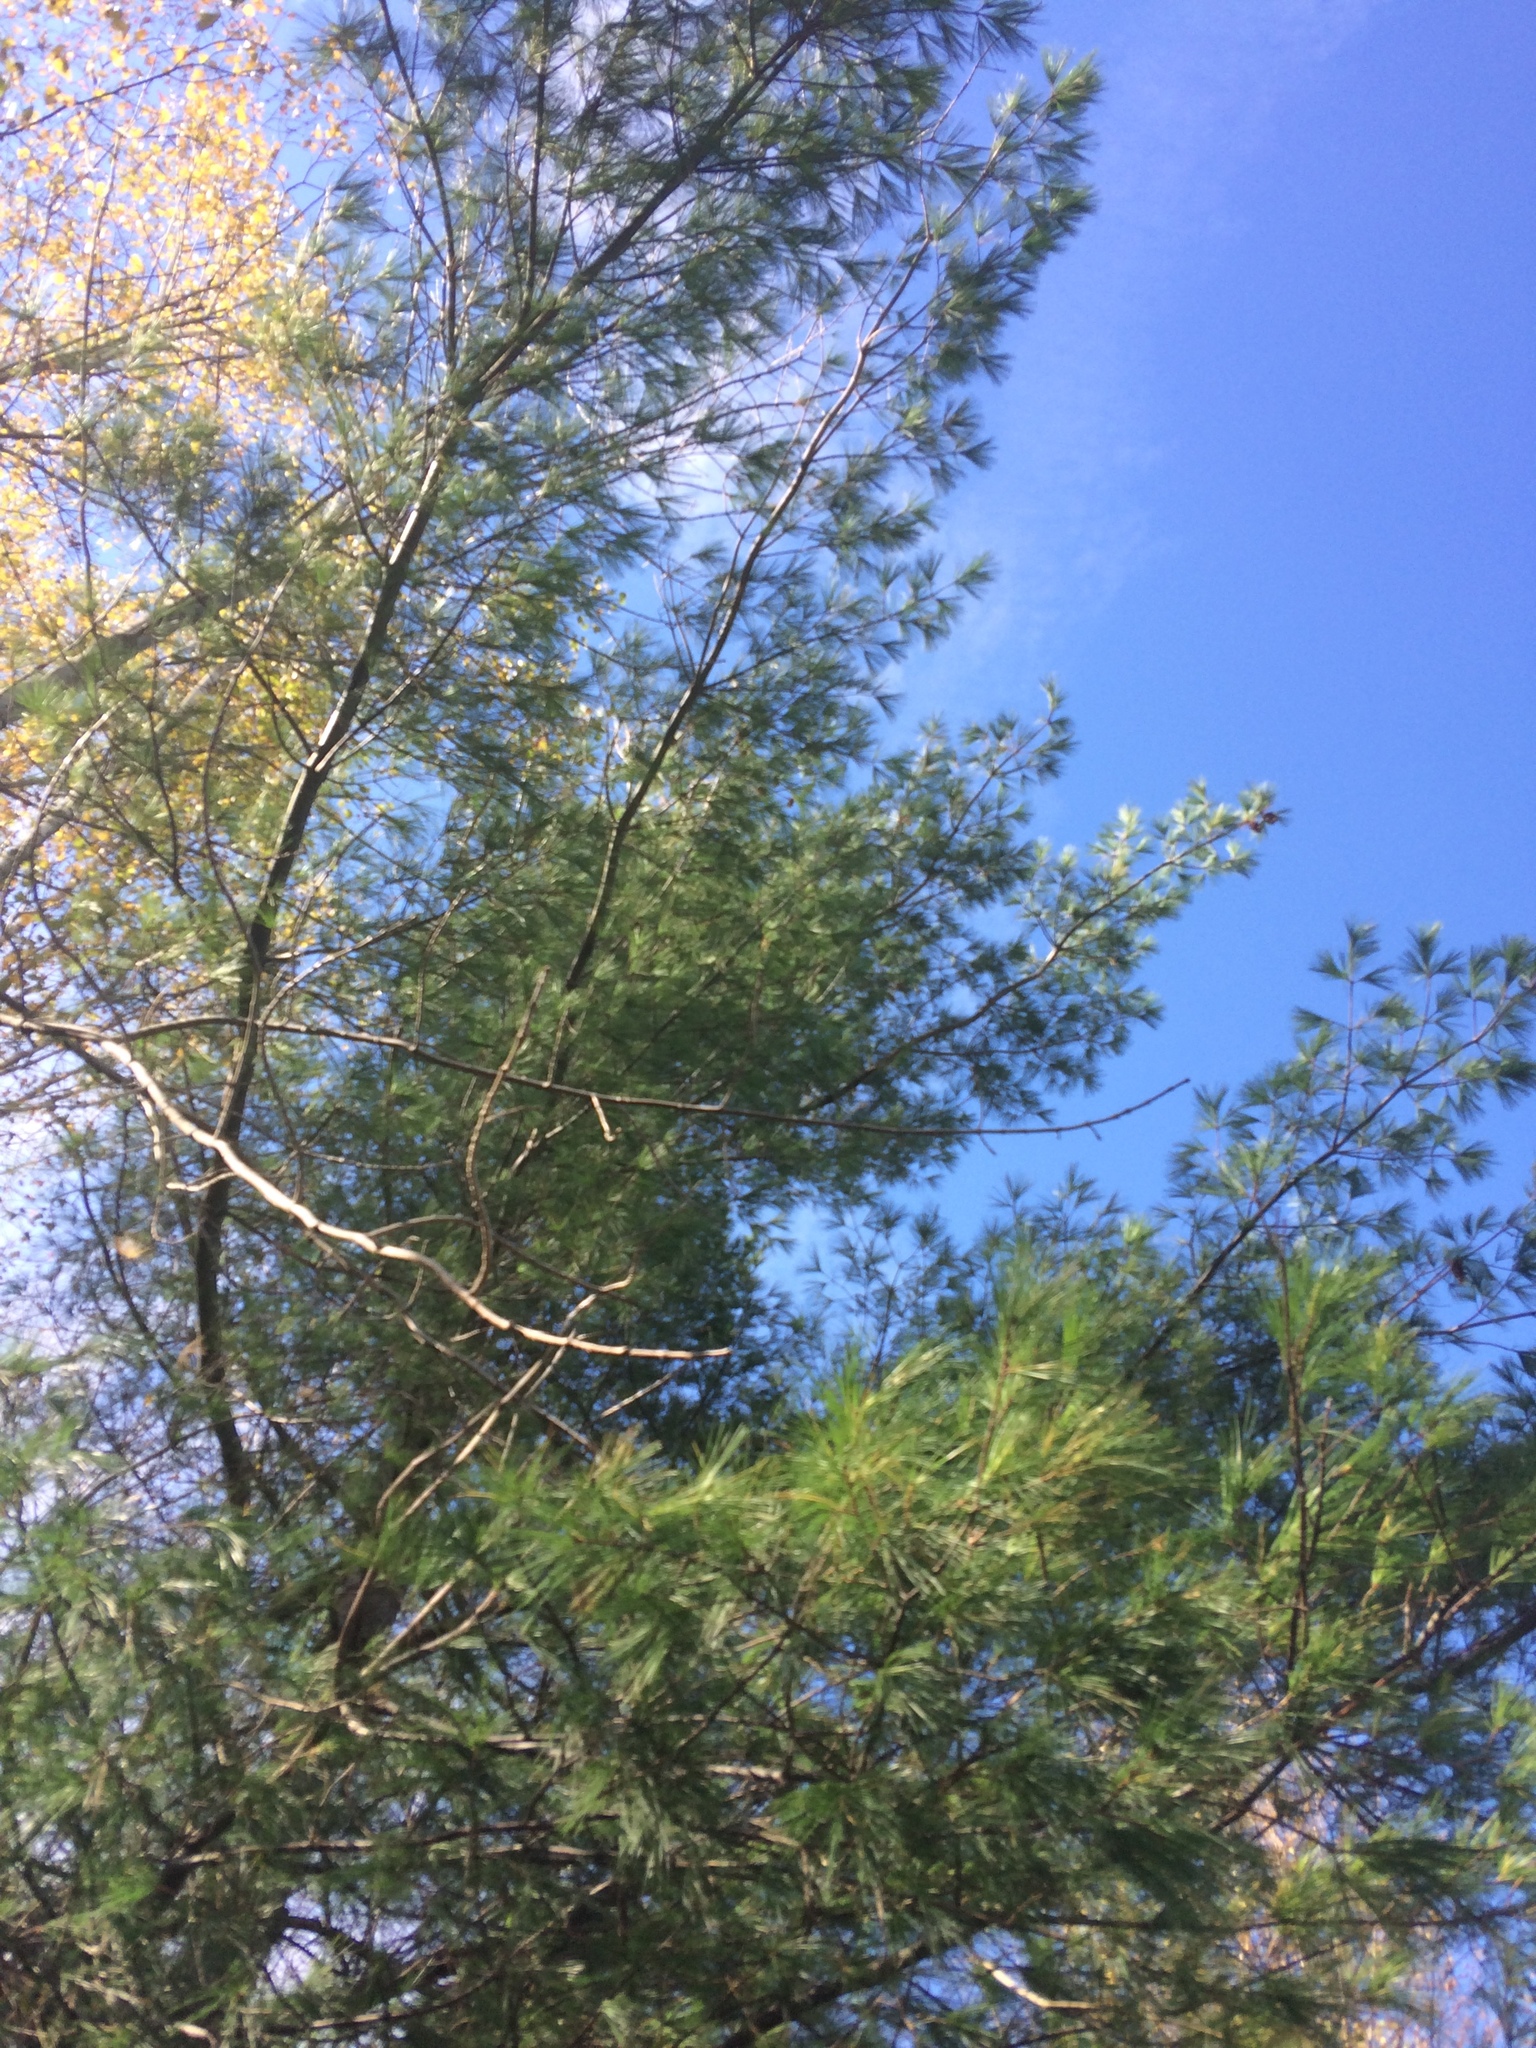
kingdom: Plantae
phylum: Tracheophyta
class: Pinopsida
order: Pinales
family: Pinaceae
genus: Pinus
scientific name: Pinus strobus
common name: Weymouth pine
